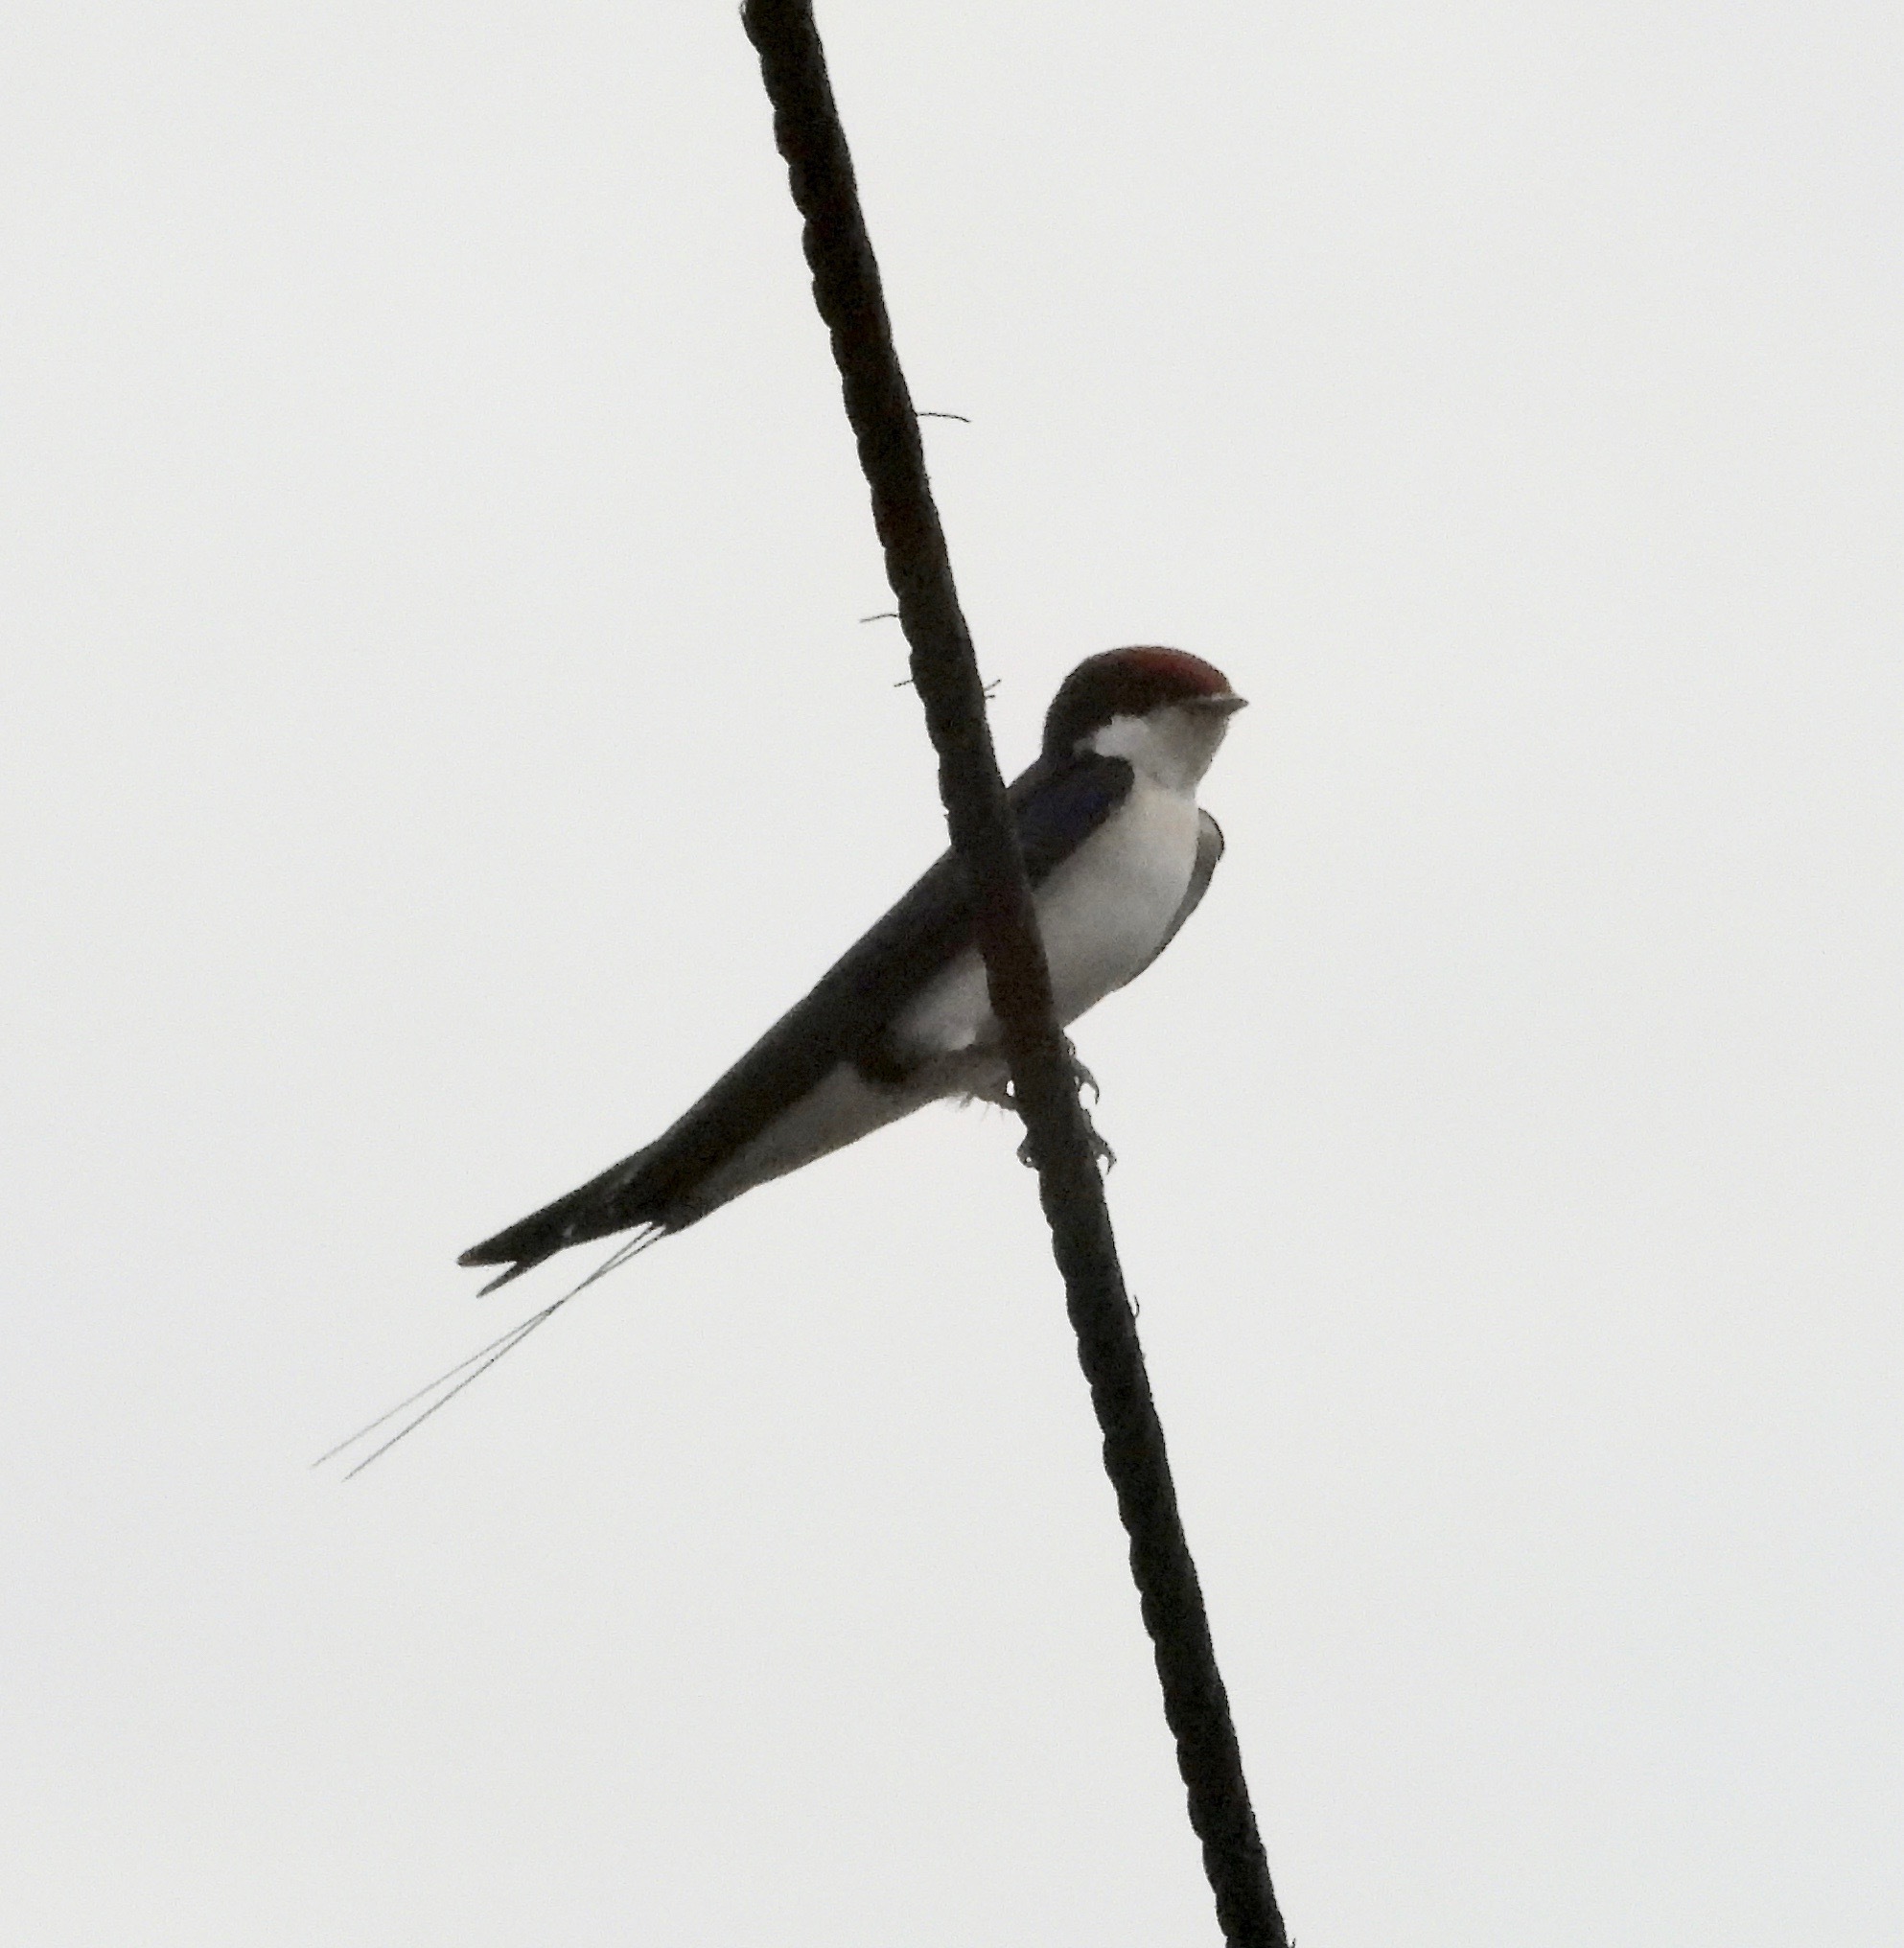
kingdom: Animalia
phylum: Chordata
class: Aves
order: Passeriformes
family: Hirundinidae
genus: Hirundo
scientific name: Hirundo smithii
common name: Wire-tailed swallow
